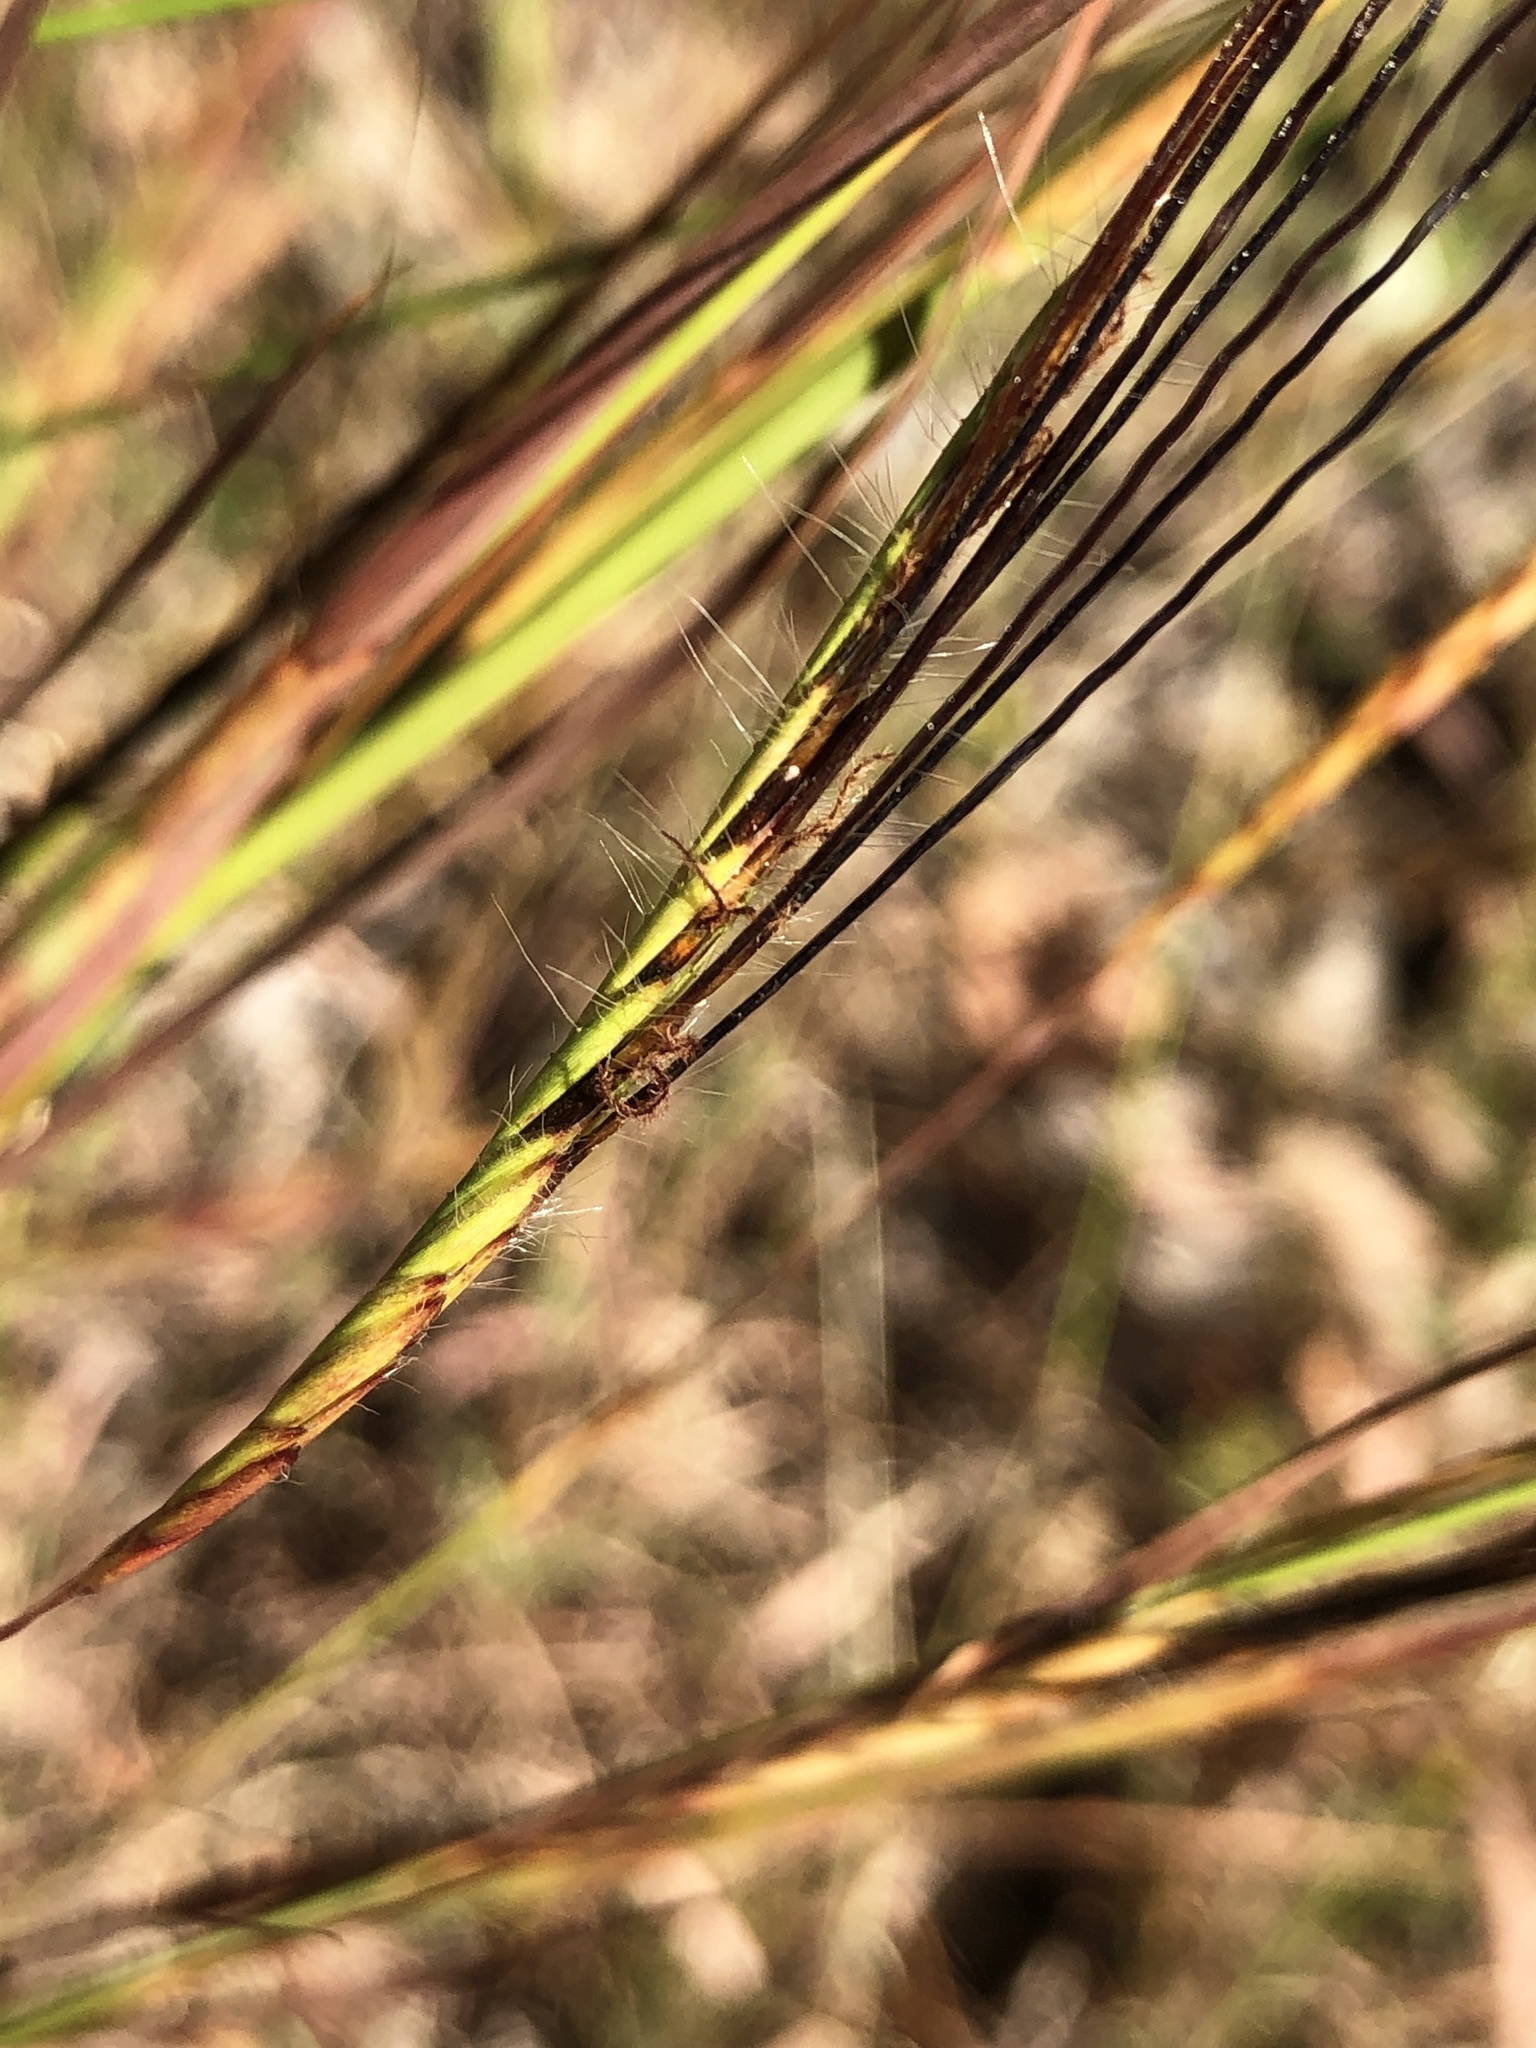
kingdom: Plantae
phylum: Tracheophyta
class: Liliopsida
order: Poales
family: Poaceae
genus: Heteropogon
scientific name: Heteropogon contortus
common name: Tanglehead
